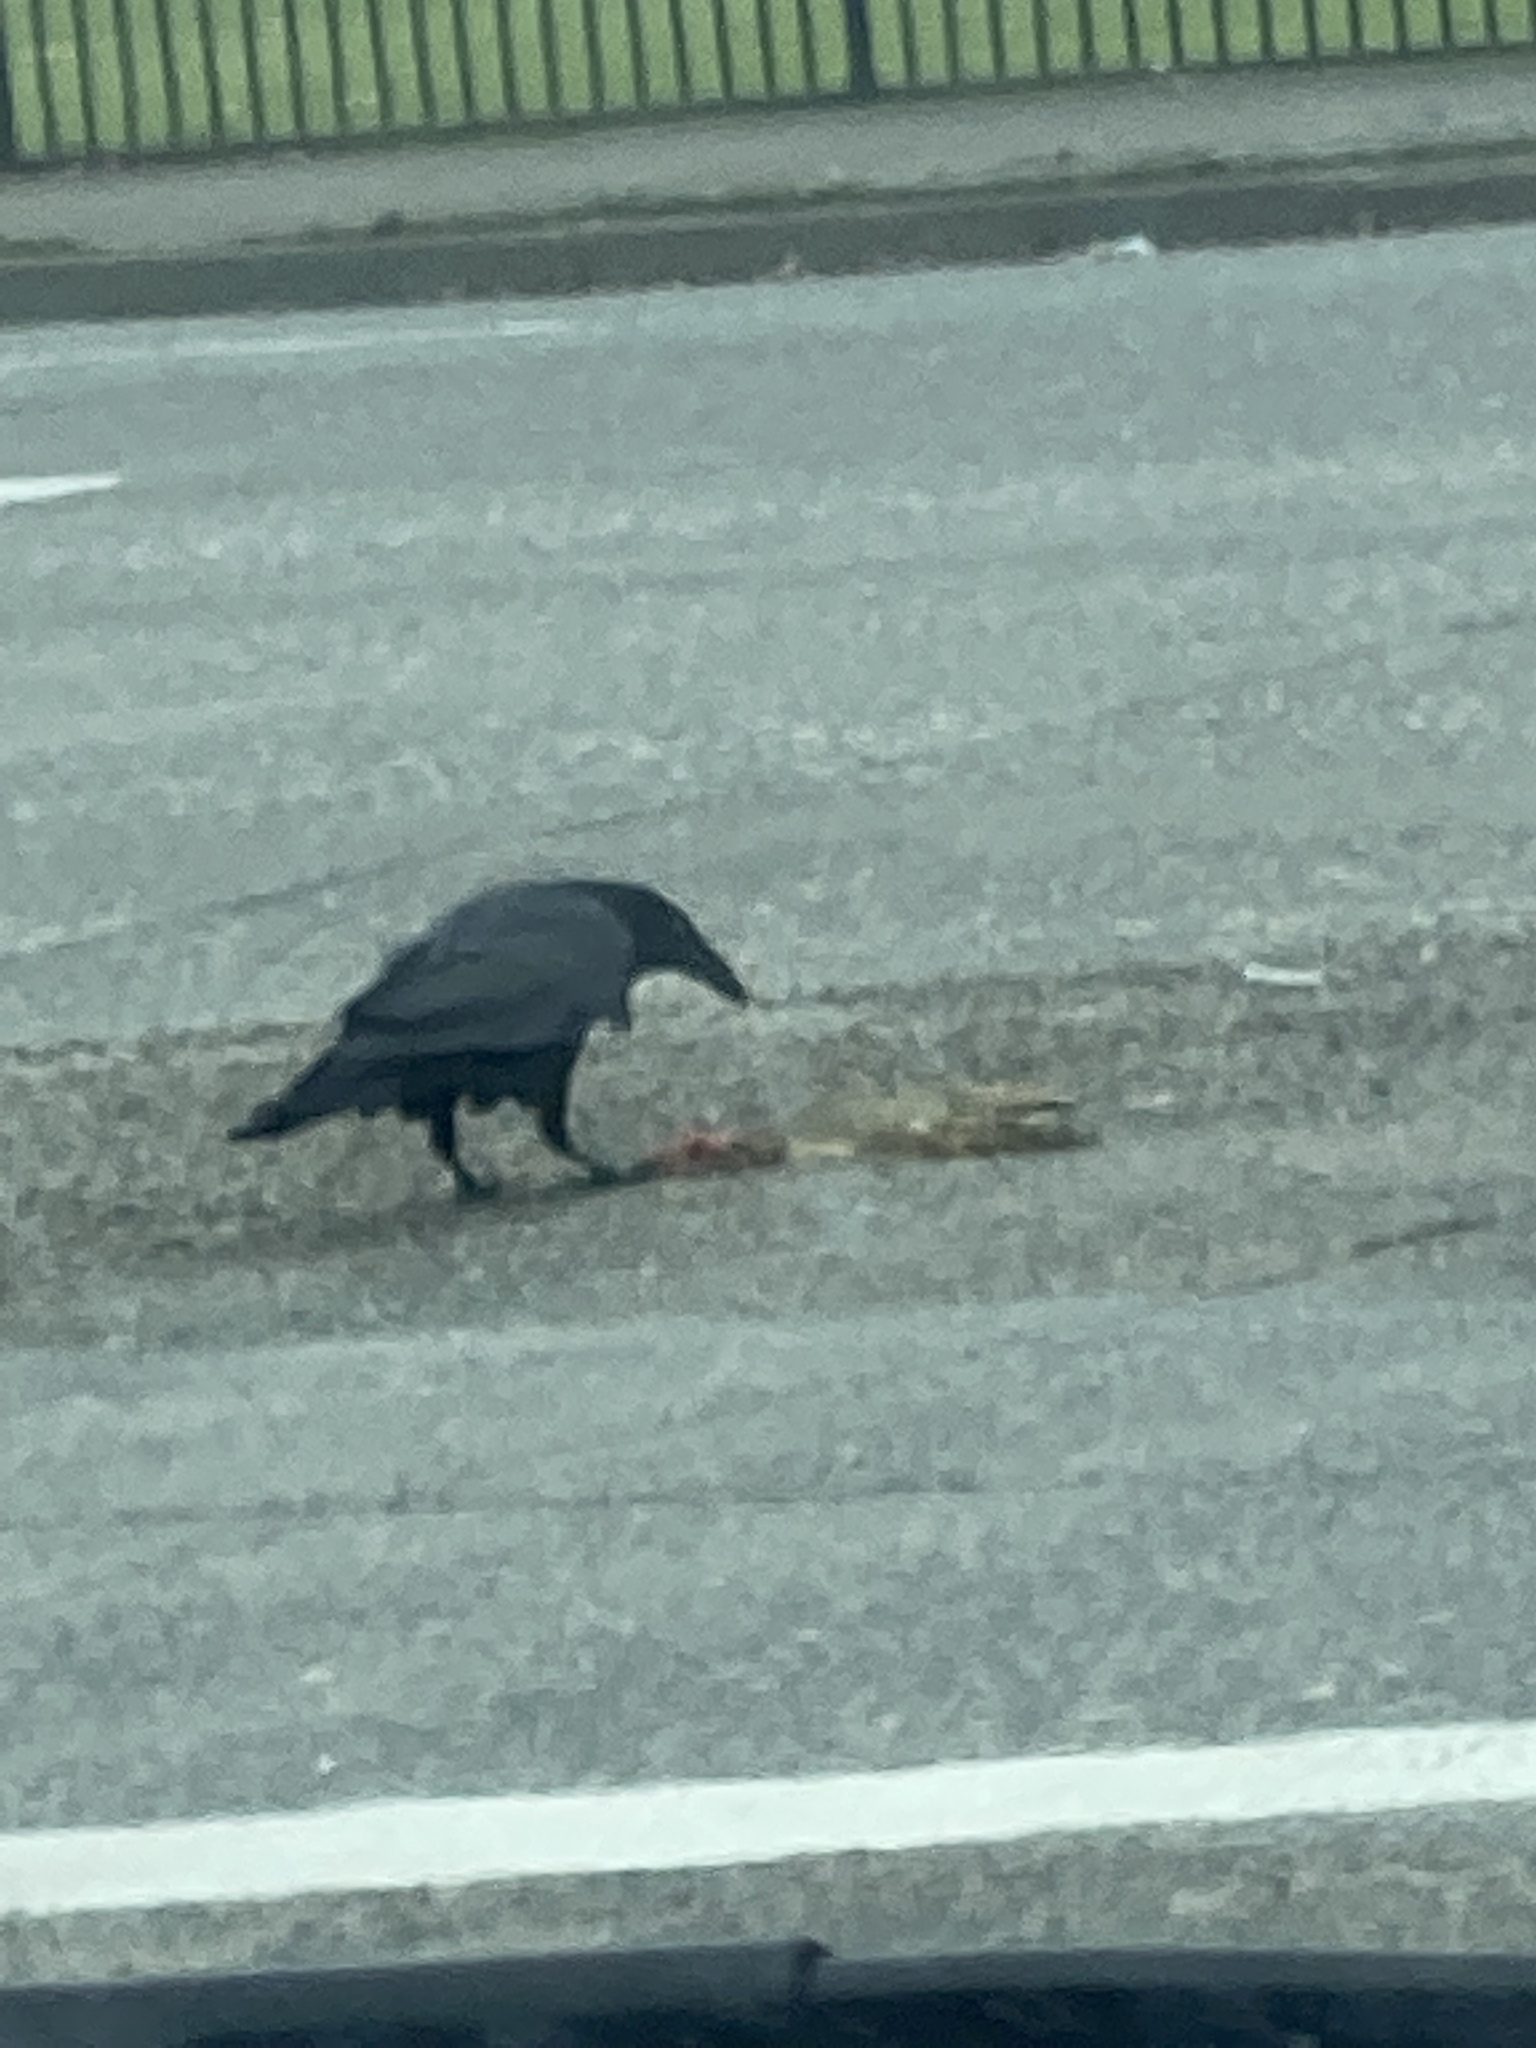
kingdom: Animalia
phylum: Chordata
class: Aves
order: Passeriformes
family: Corvidae
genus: Corvus
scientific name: Corvus corax
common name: Common raven
